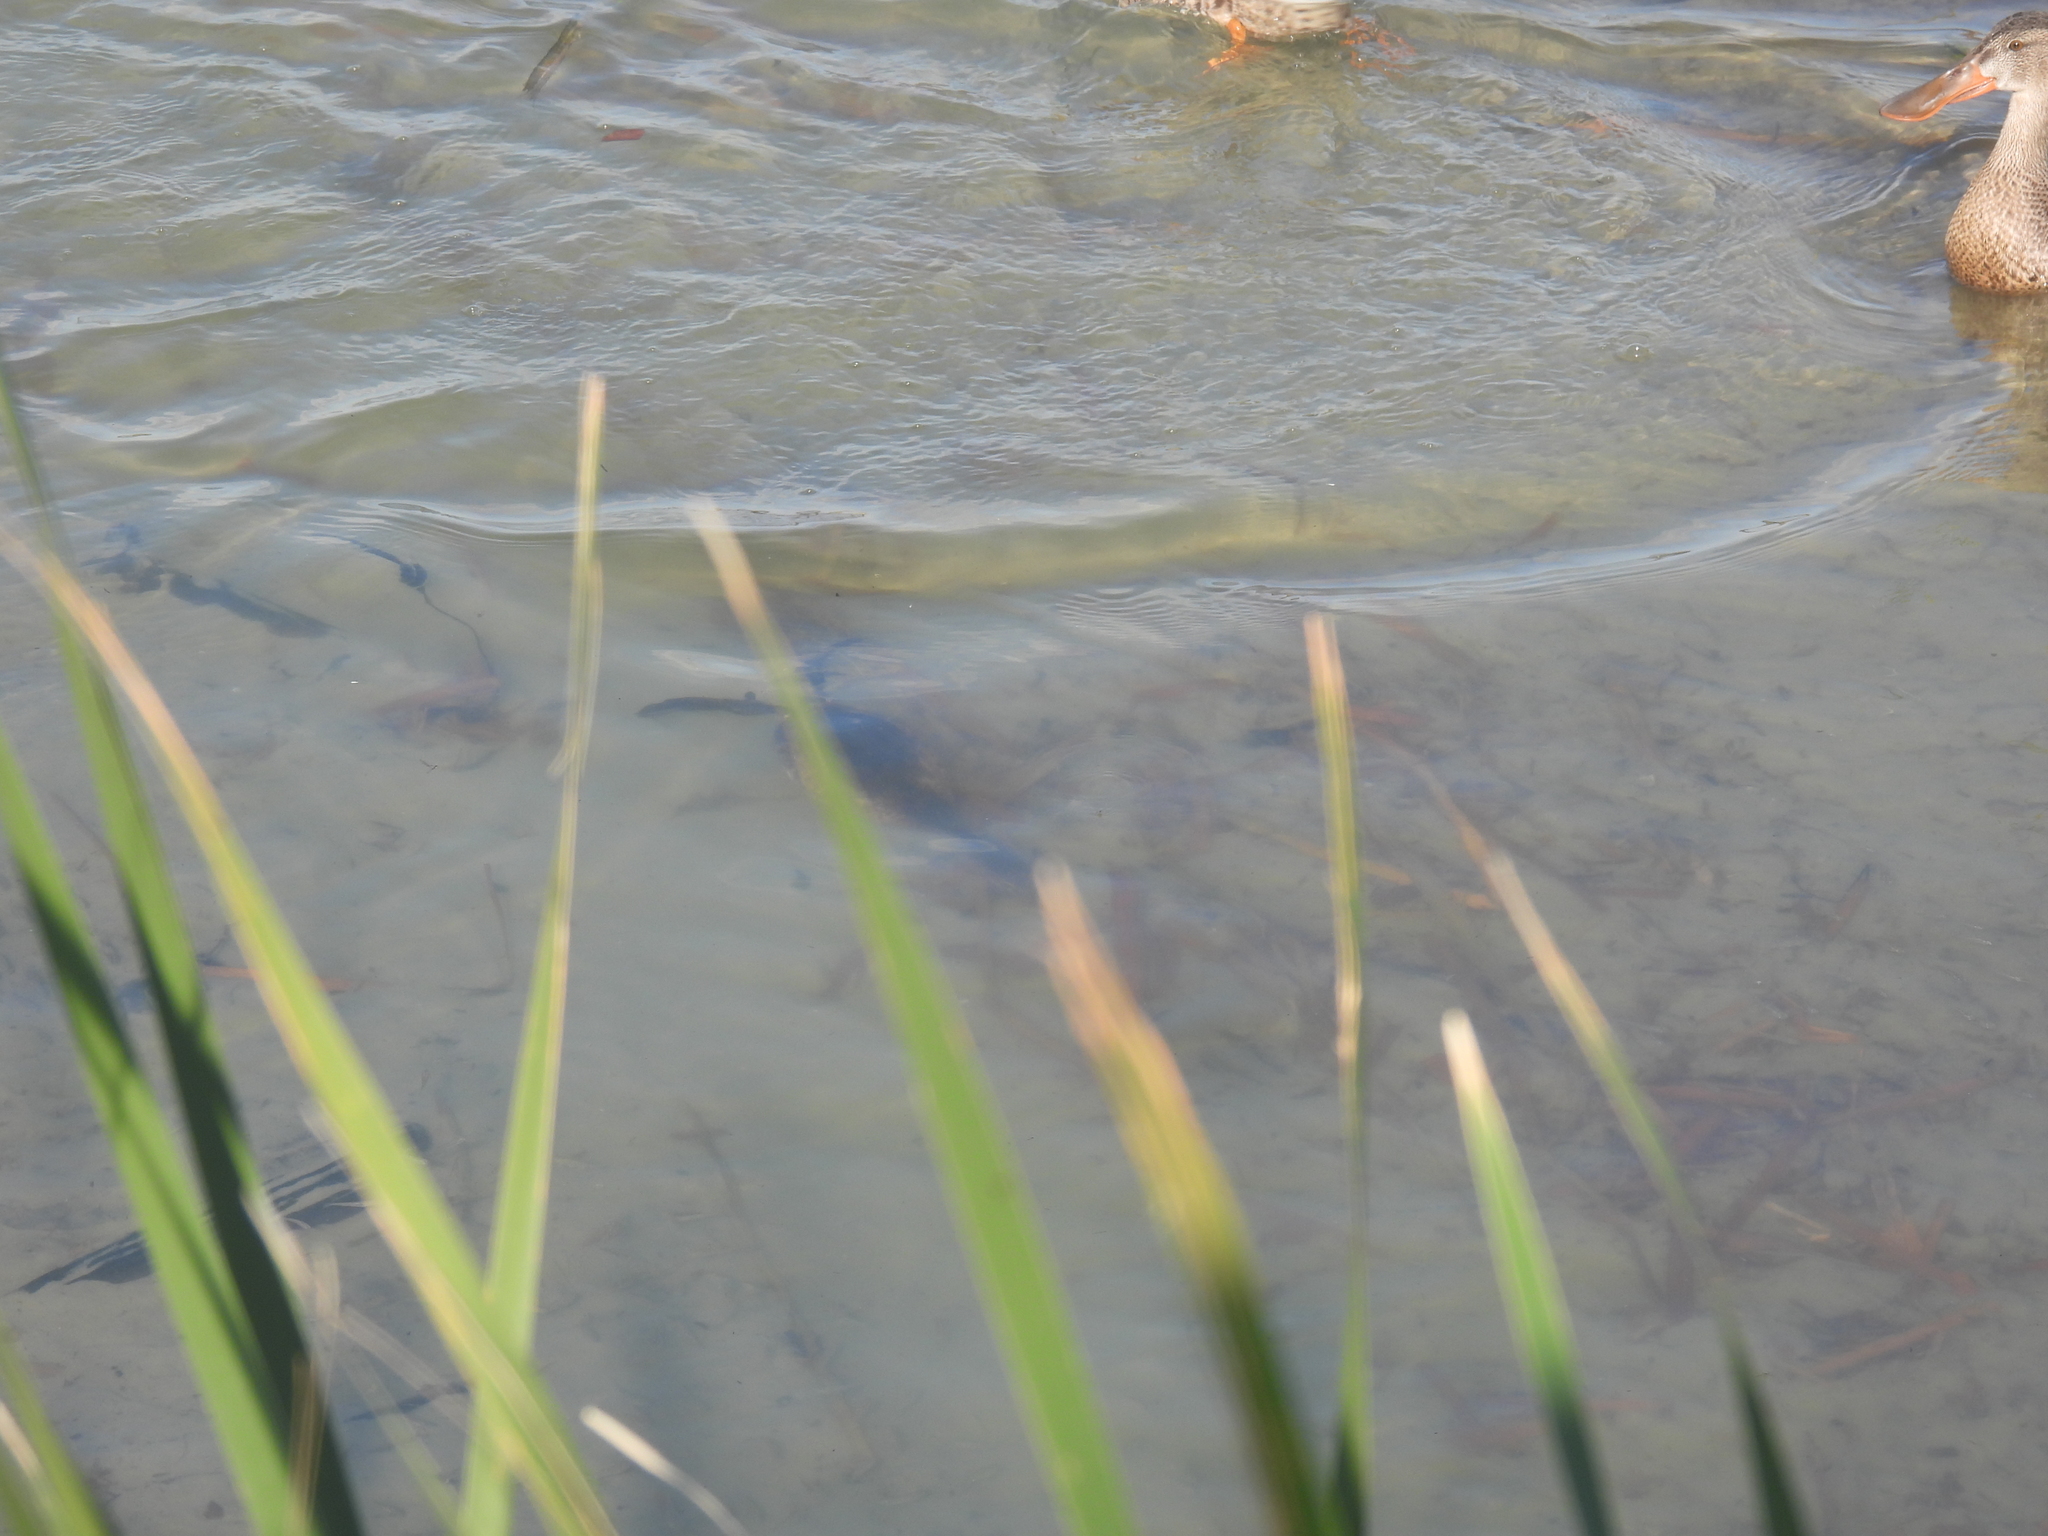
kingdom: Animalia
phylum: Chordata
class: Aves
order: Podicipediformes
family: Podicipedidae
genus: Podilymbus
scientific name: Podilymbus podiceps
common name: Pied-billed grebe
